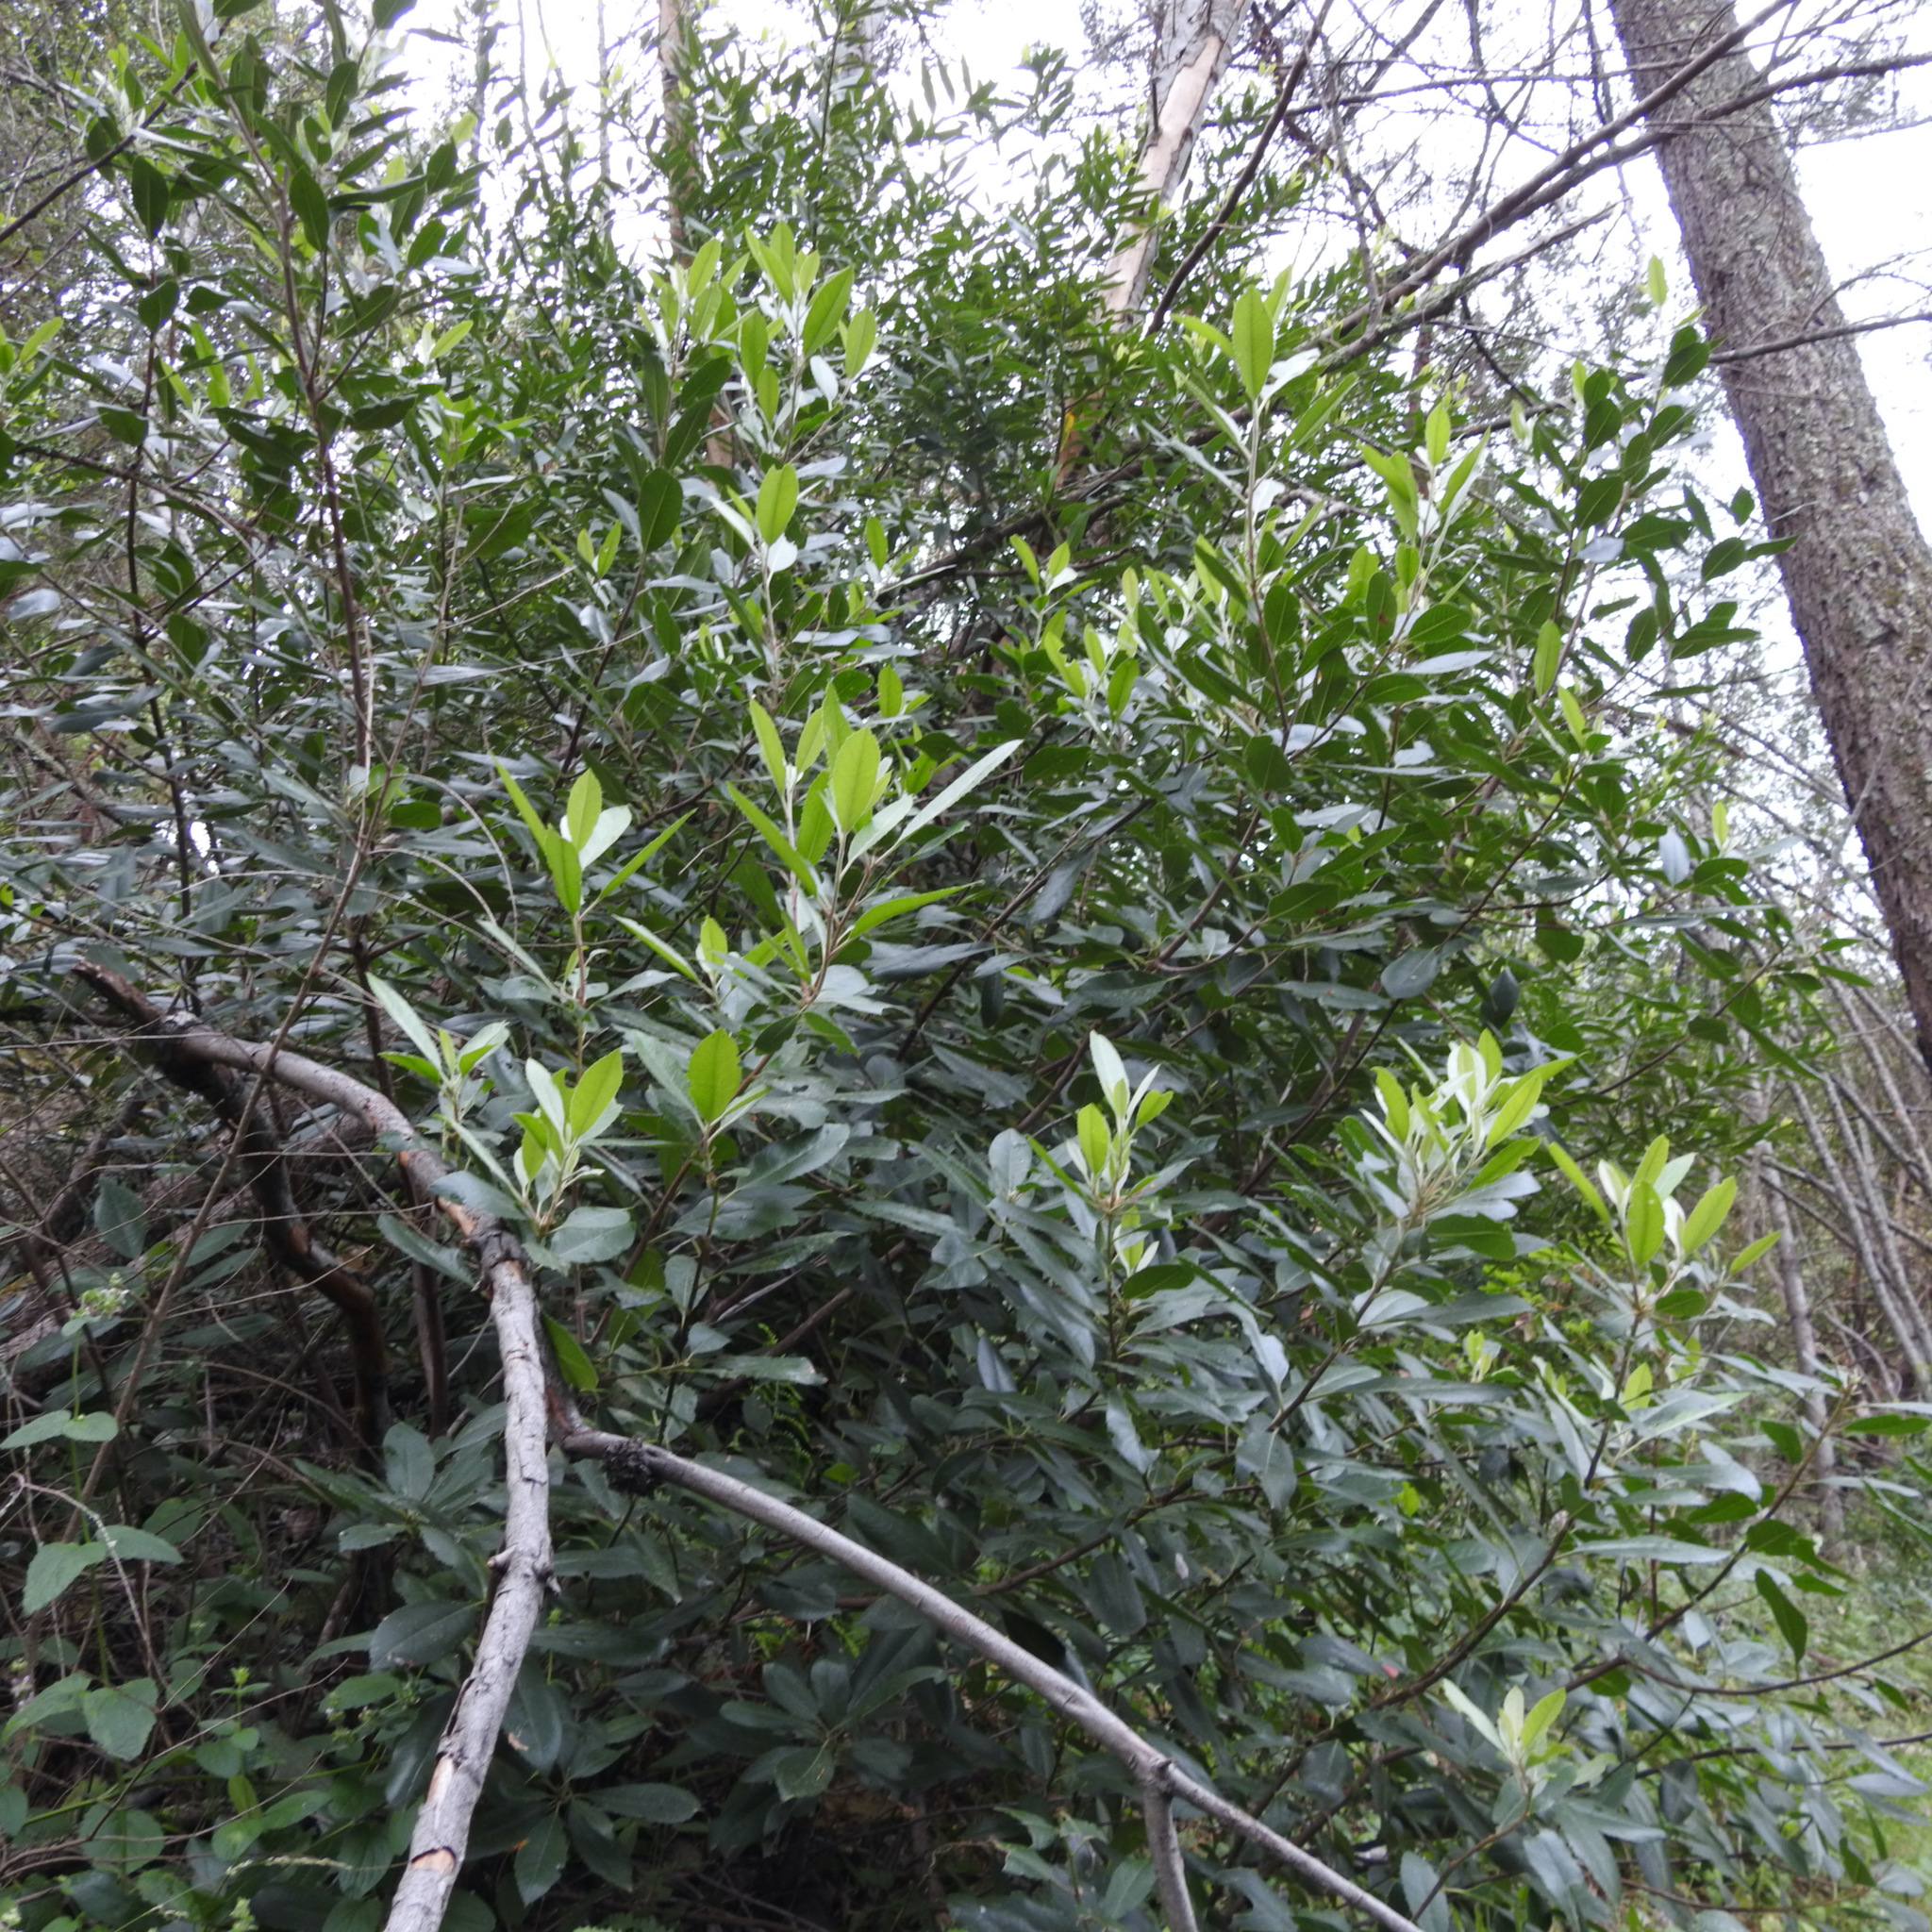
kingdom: Plantae
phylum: Tracheophyta
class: Magnoliopsida
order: Rosales
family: Rosaceae
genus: Heteromeles
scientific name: Heteromeles arbutifolia
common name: California-holly
